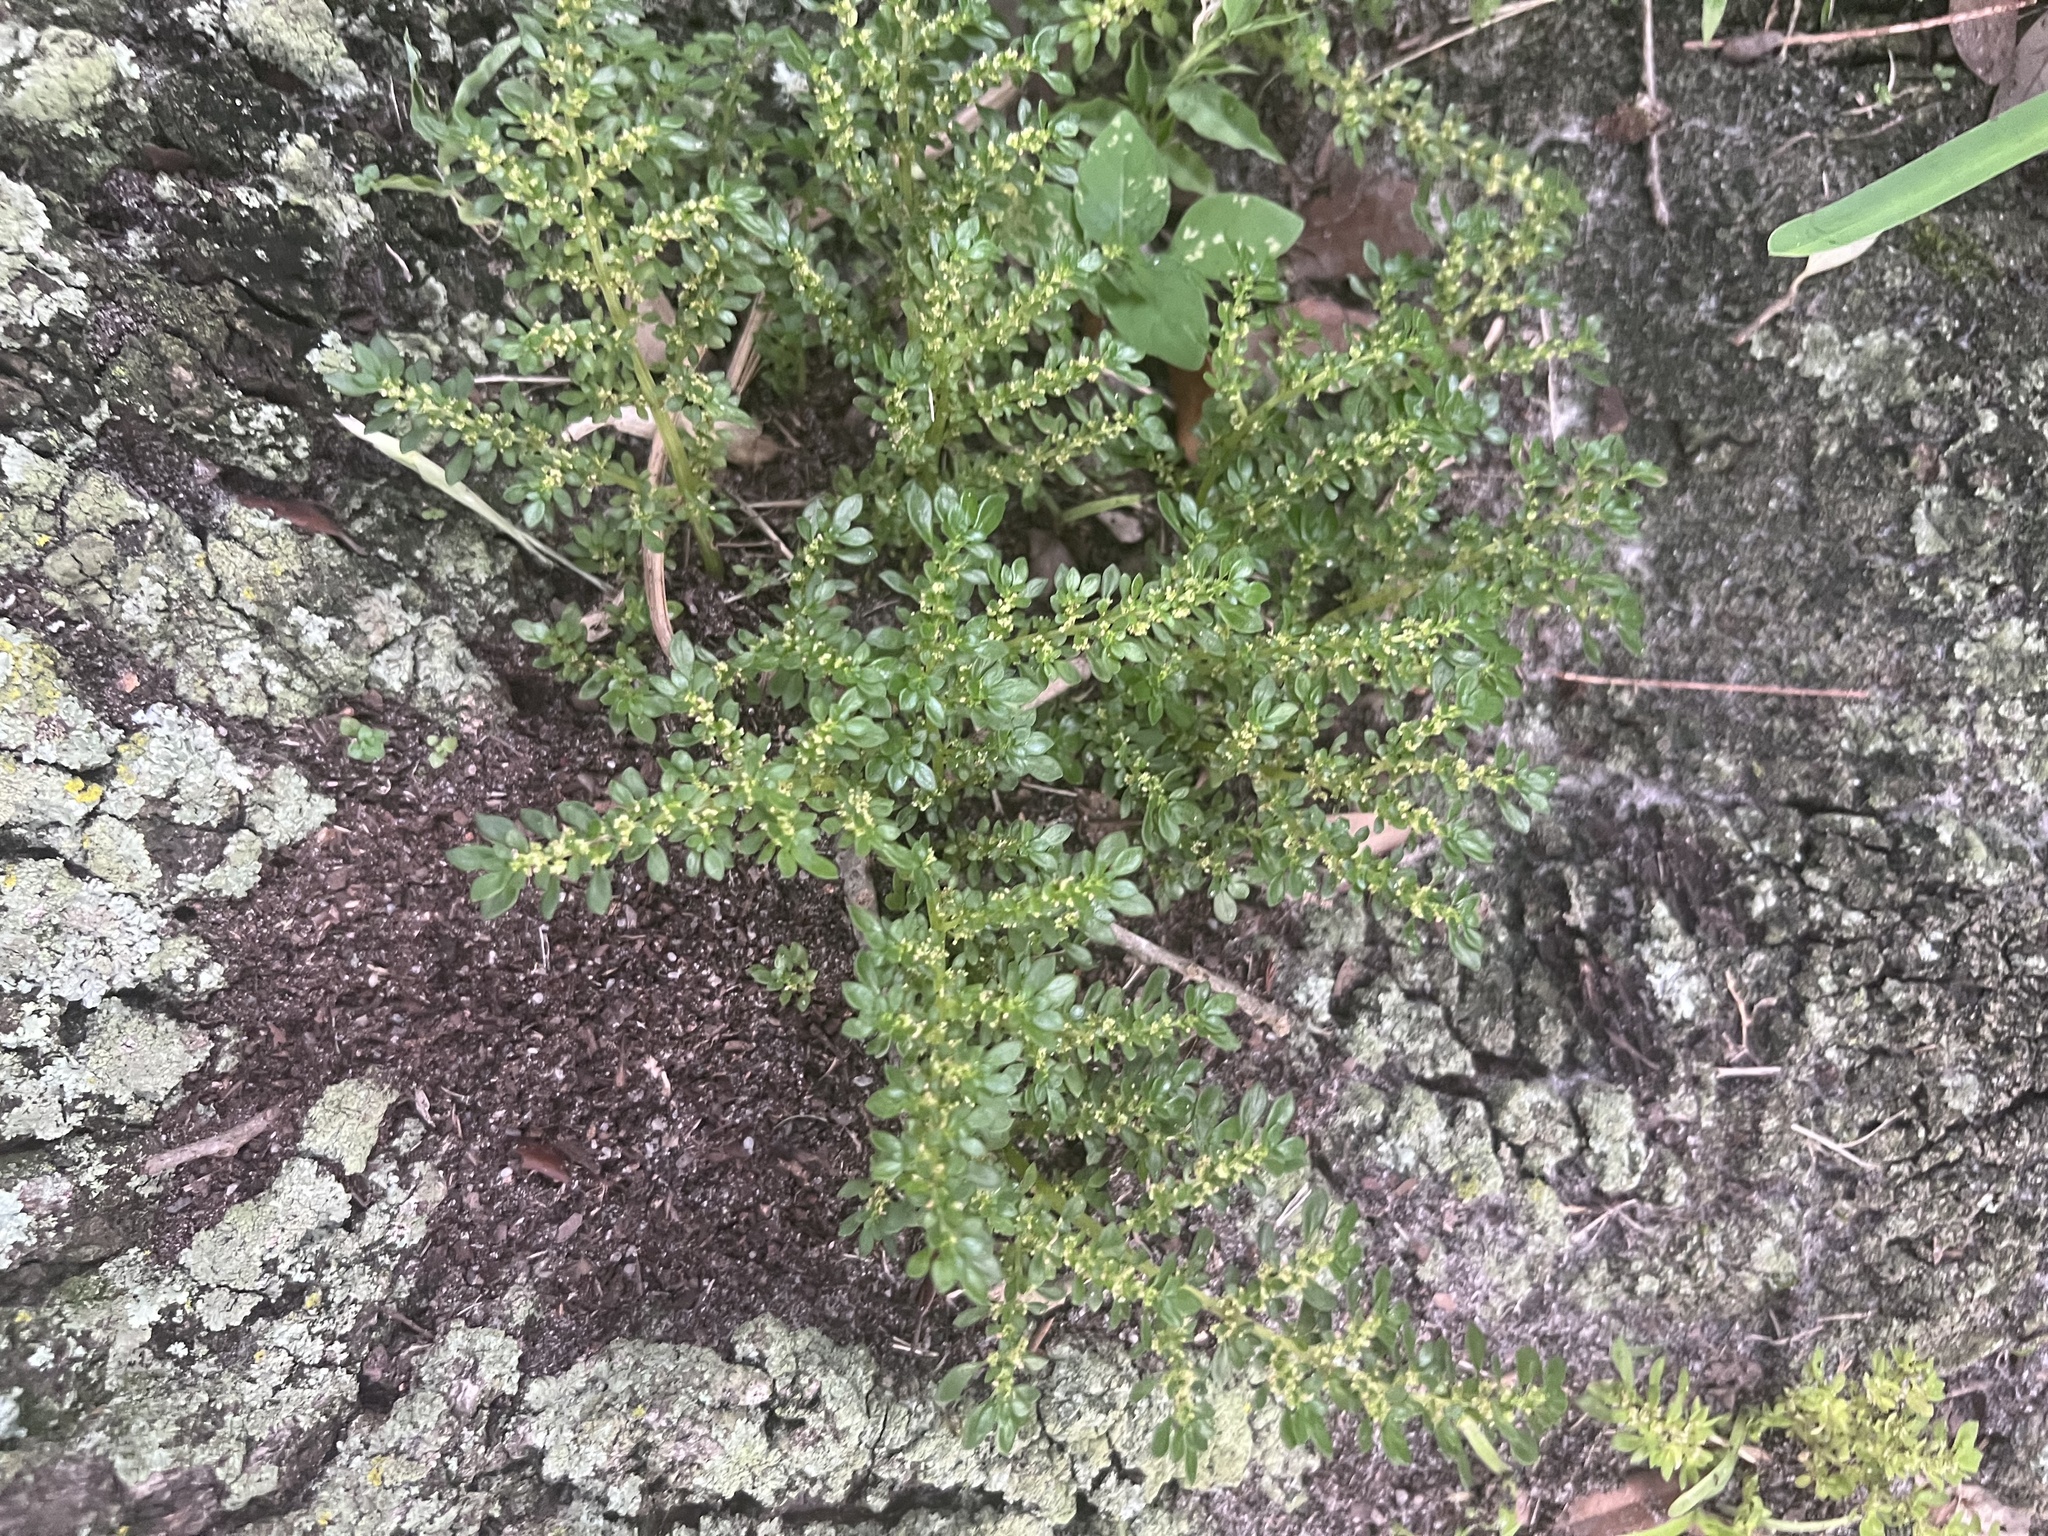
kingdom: Plantae
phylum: Tracheophyta
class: Magnoliopsida
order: Rosales
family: Urticaceae
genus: Pilea
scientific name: Pilea microphylla
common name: Artillery-plant
